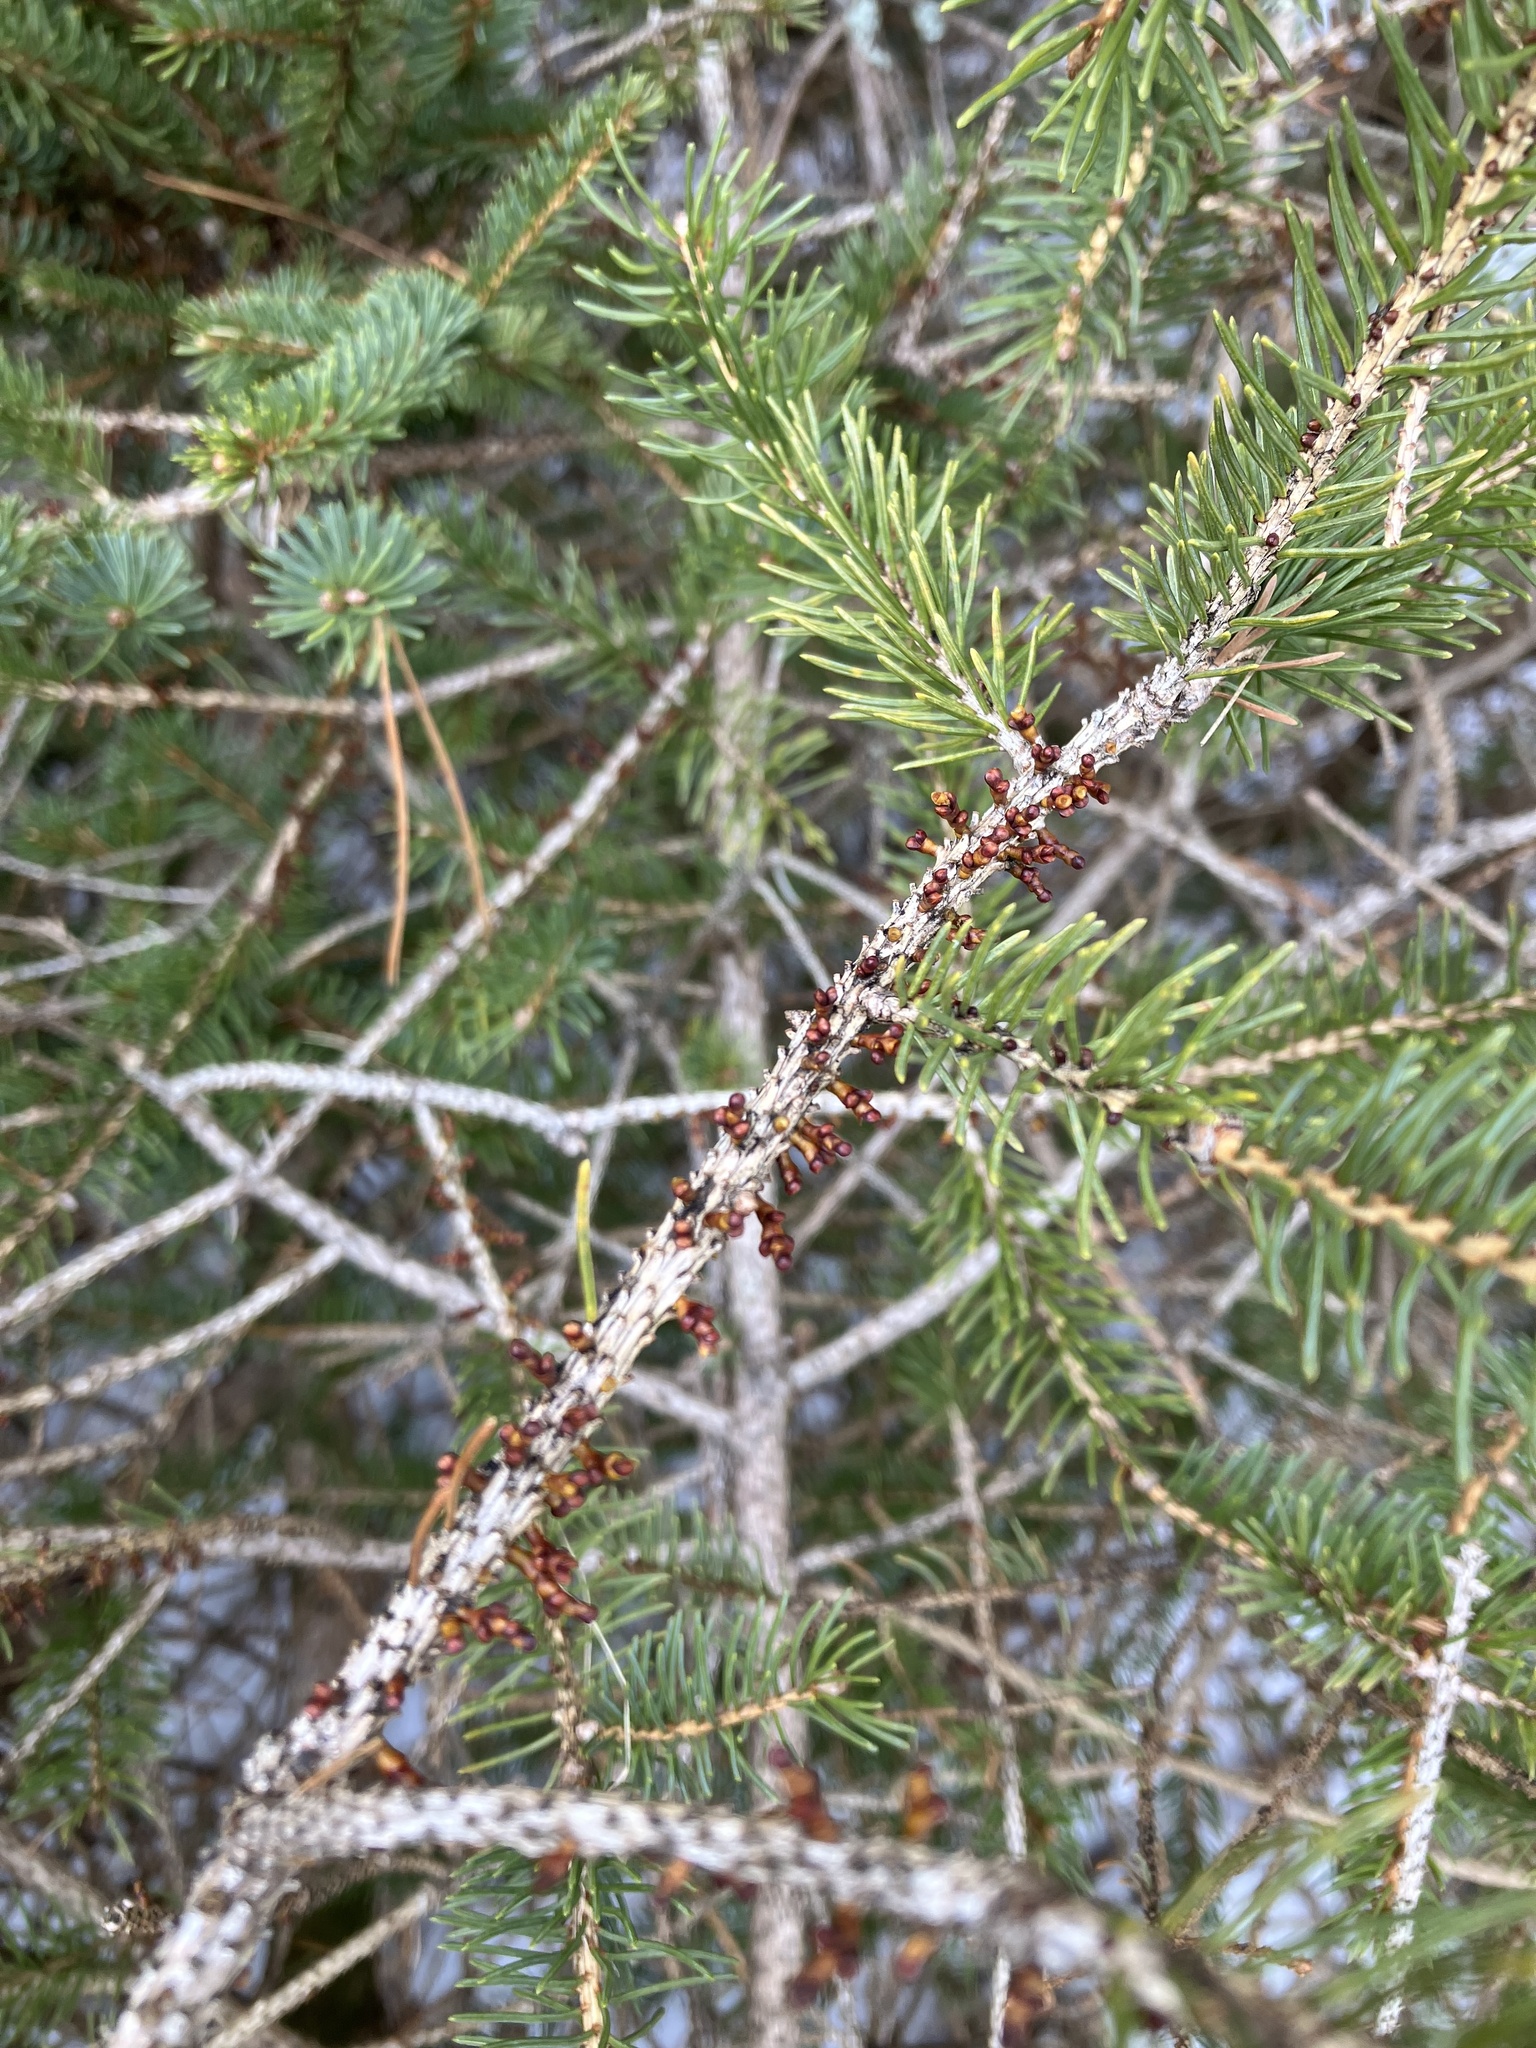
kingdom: Plantae
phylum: Tracheophyta
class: Magnoliopsida
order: Santalales
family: Viscaceae
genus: Arceuthobium
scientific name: Arceuthobium pusillum
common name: Dwarf-mistletoe
